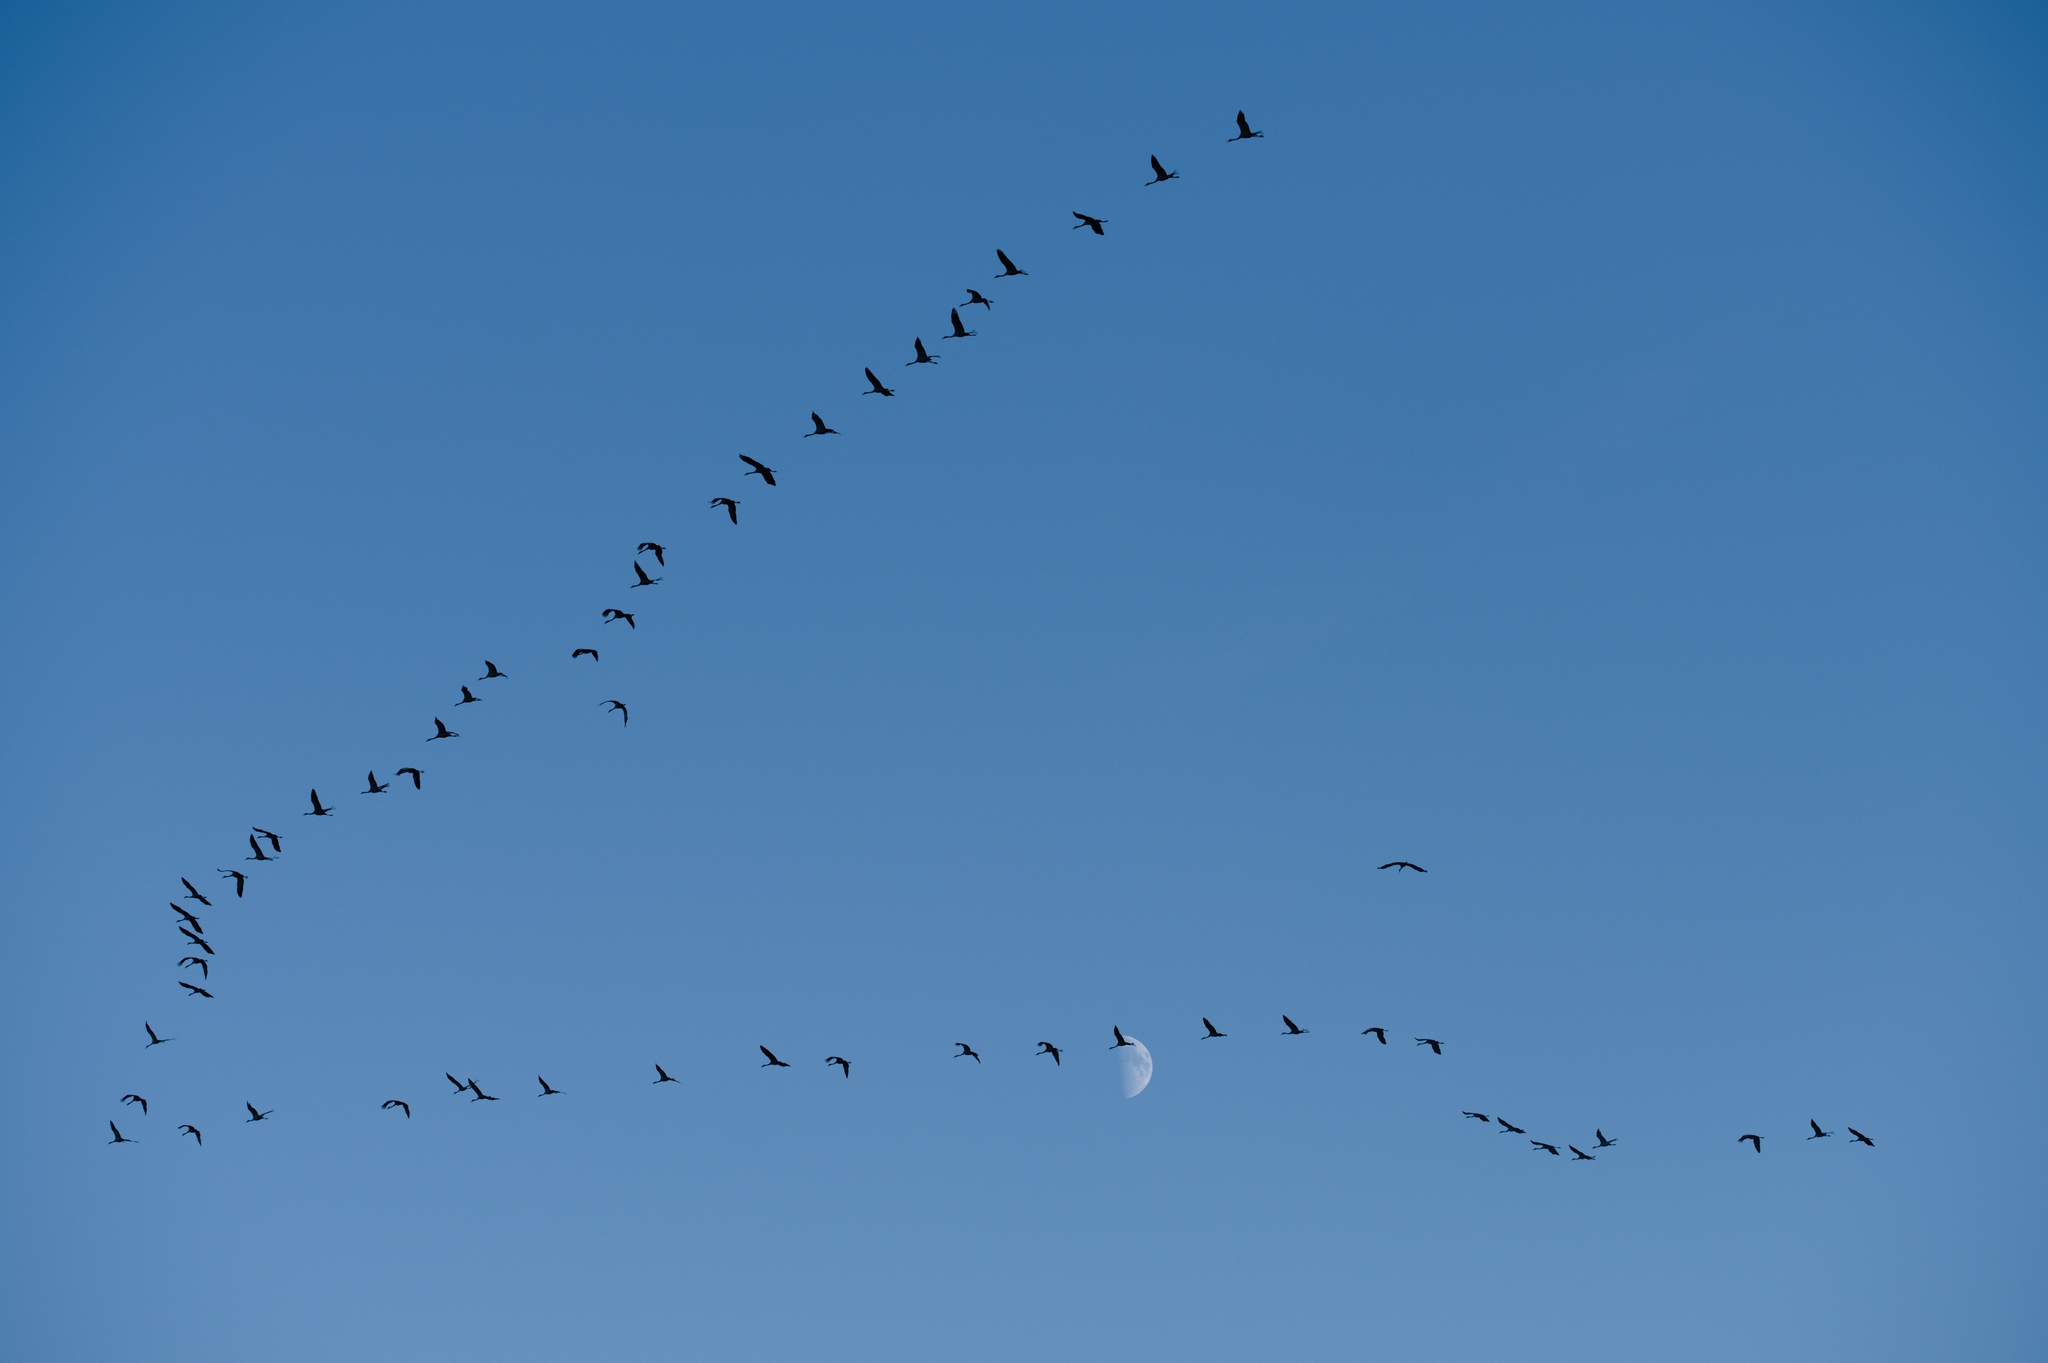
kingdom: Animalia
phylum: Chordata
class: Aves
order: Gruiformes
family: Gruidae
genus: Grus
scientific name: Grus grus
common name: Common crane
